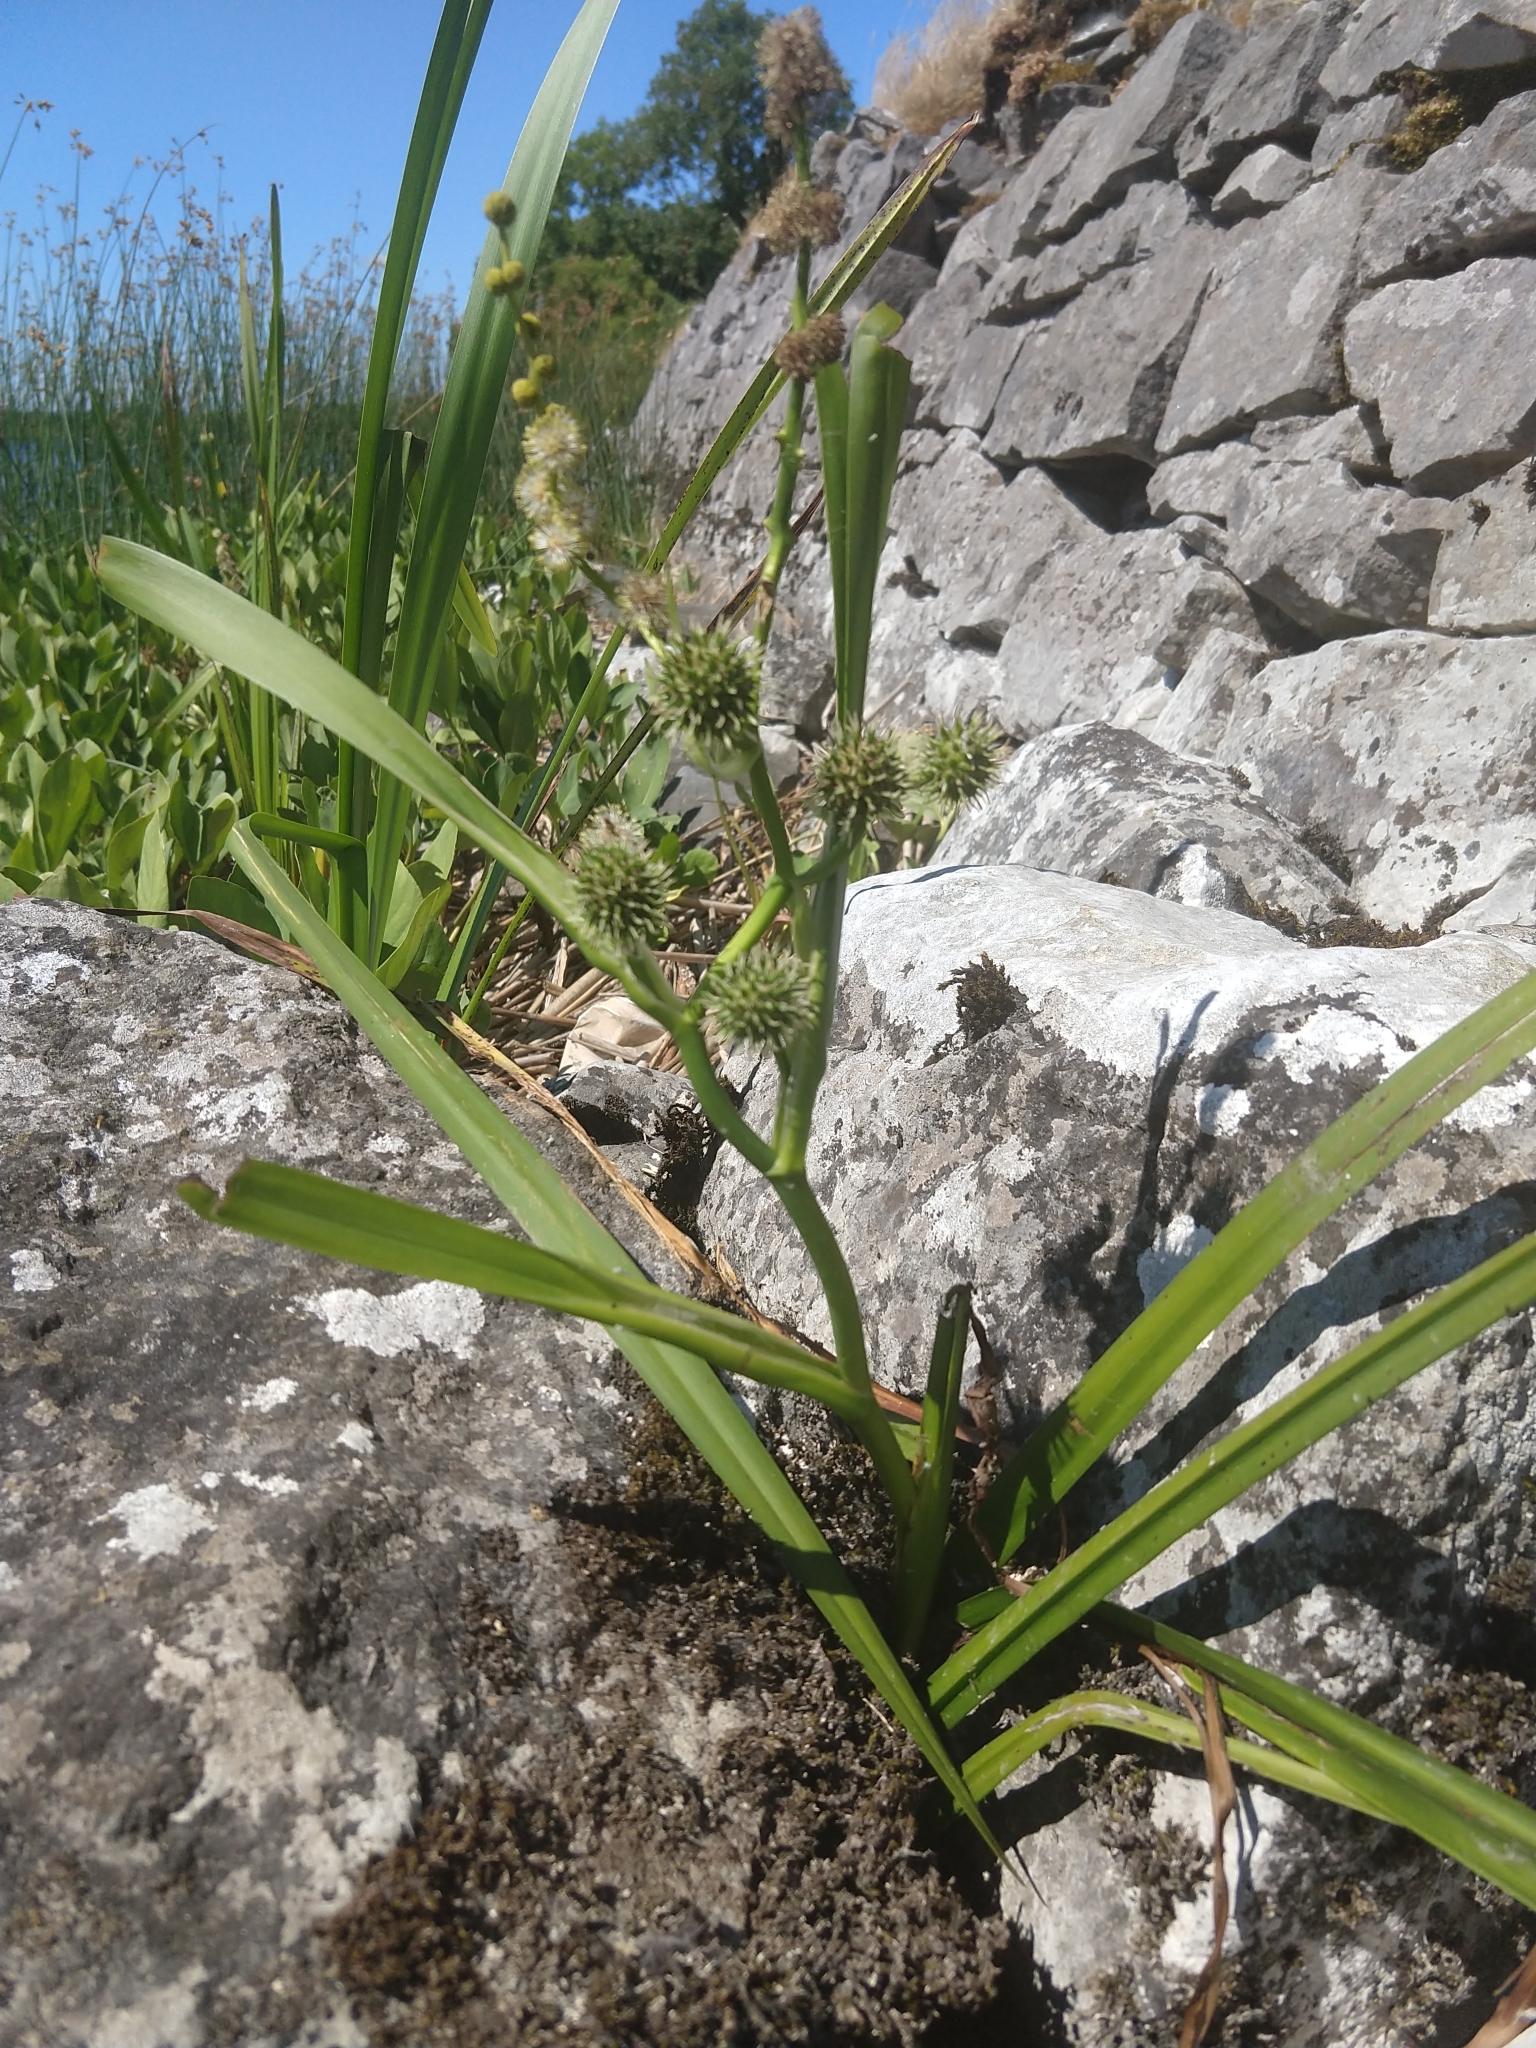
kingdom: Plantae
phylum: Tracheophyta
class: Liliopsida
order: Poales
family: Typhaceae
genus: Sparganium
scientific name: Sparganium erectum
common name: Branched bur-reed
